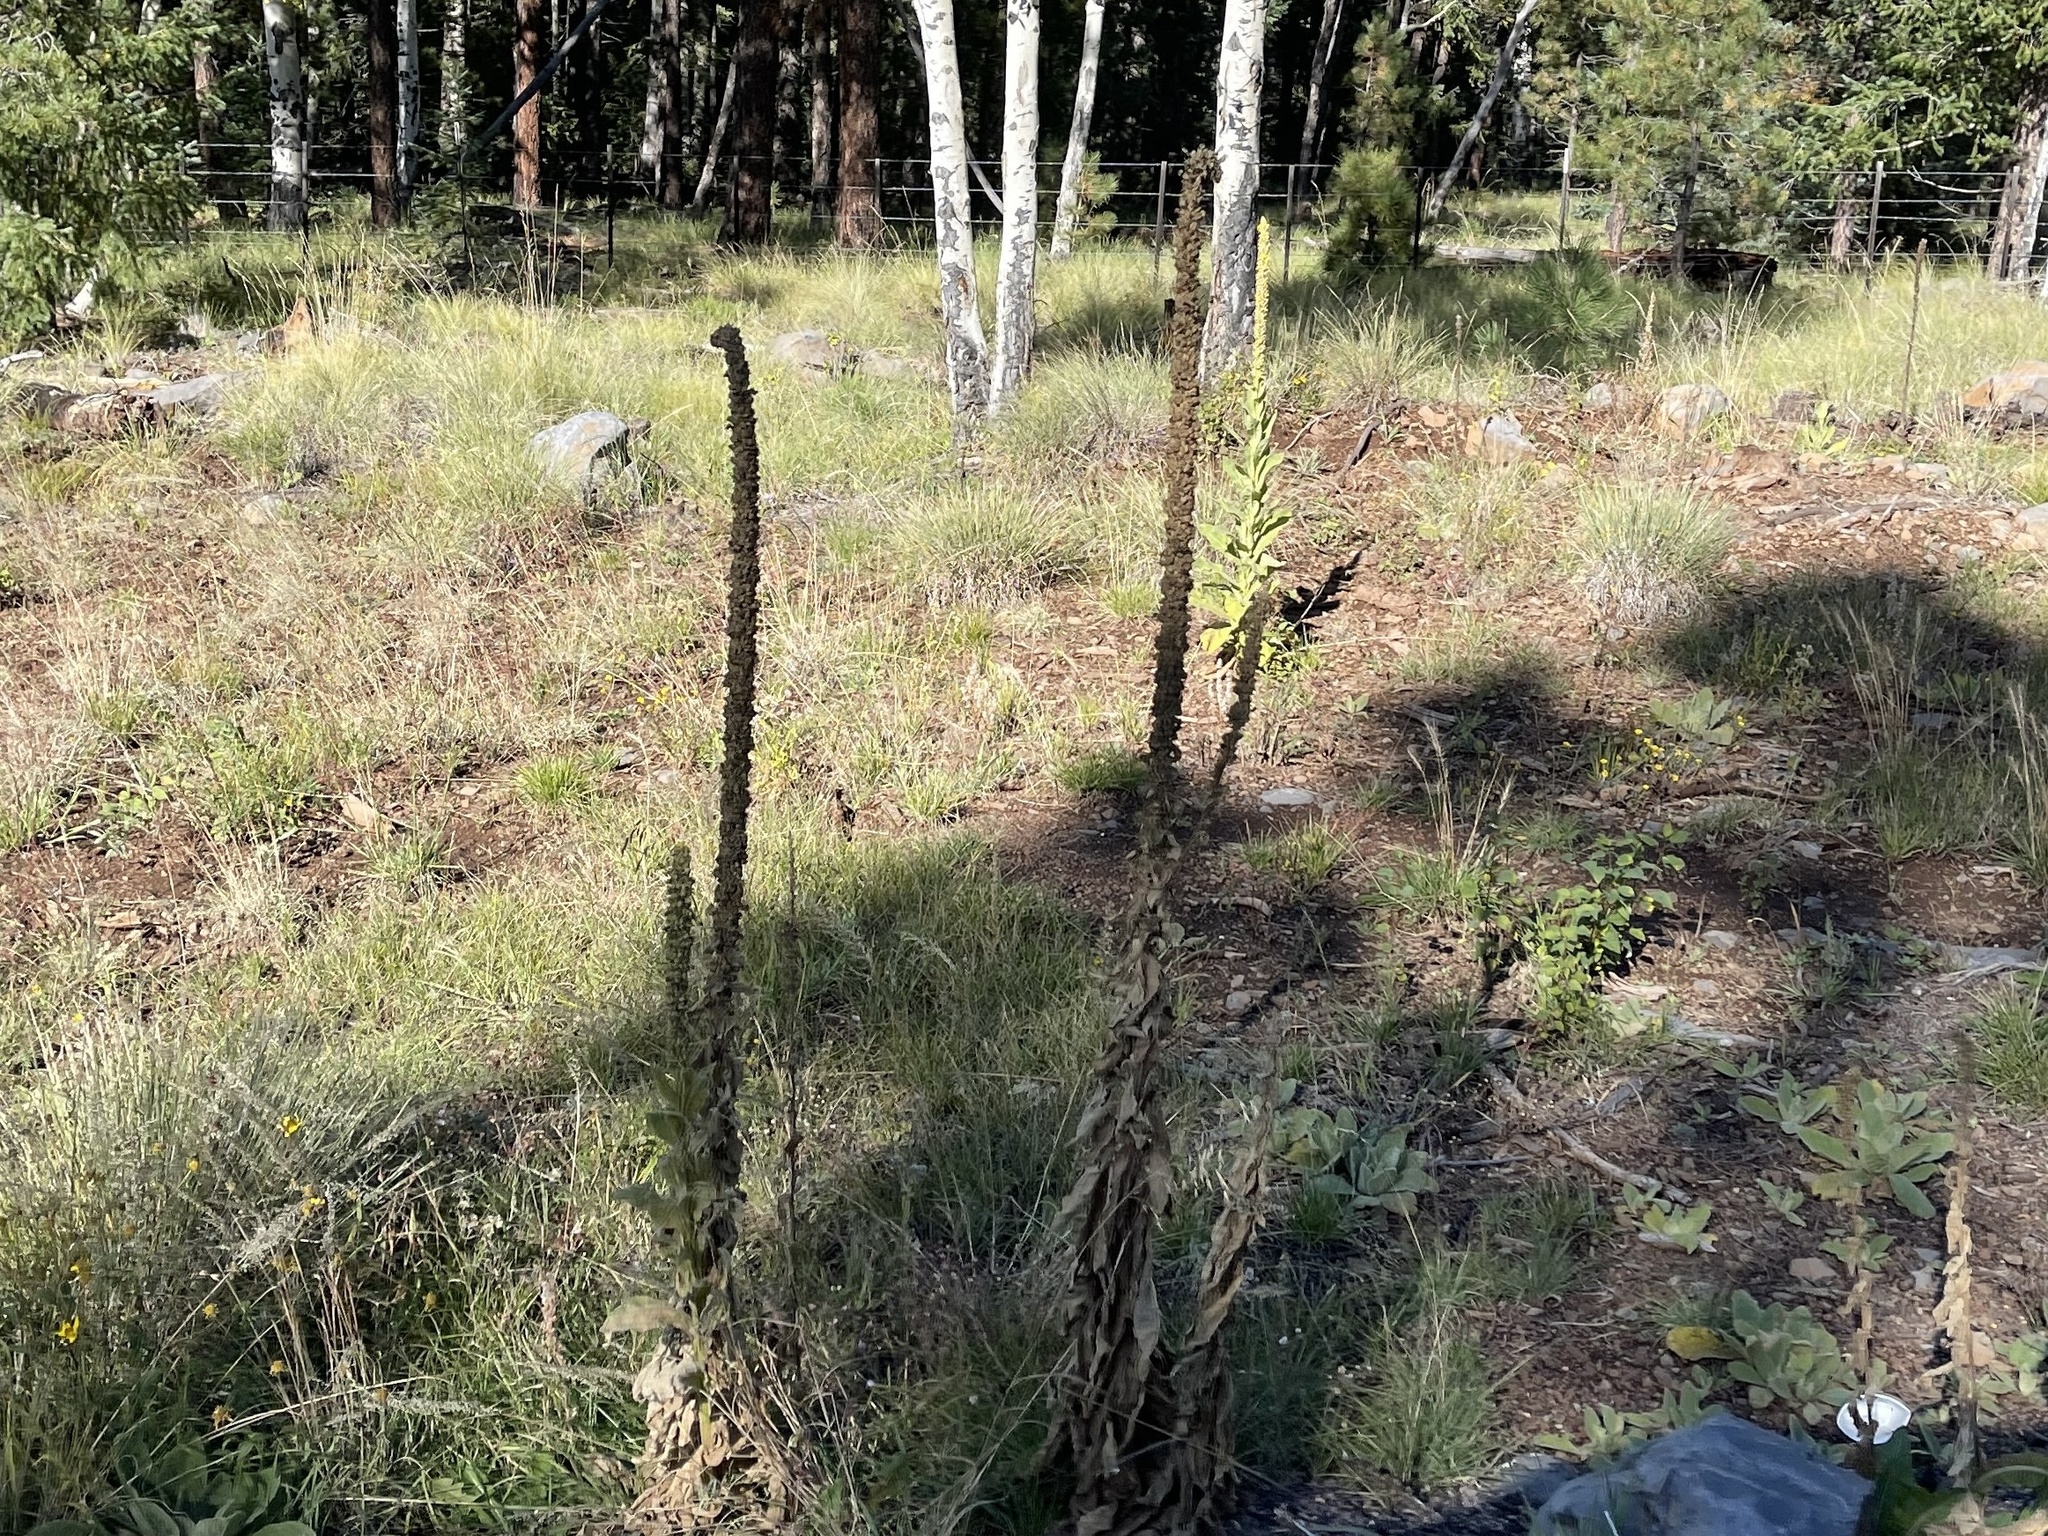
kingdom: Plantae
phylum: Tracheophyta
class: Magnoliopsida
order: Lamiales
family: Scrophulariaceae
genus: Verbascum
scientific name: Verbascum thapsus
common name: Common mullein
